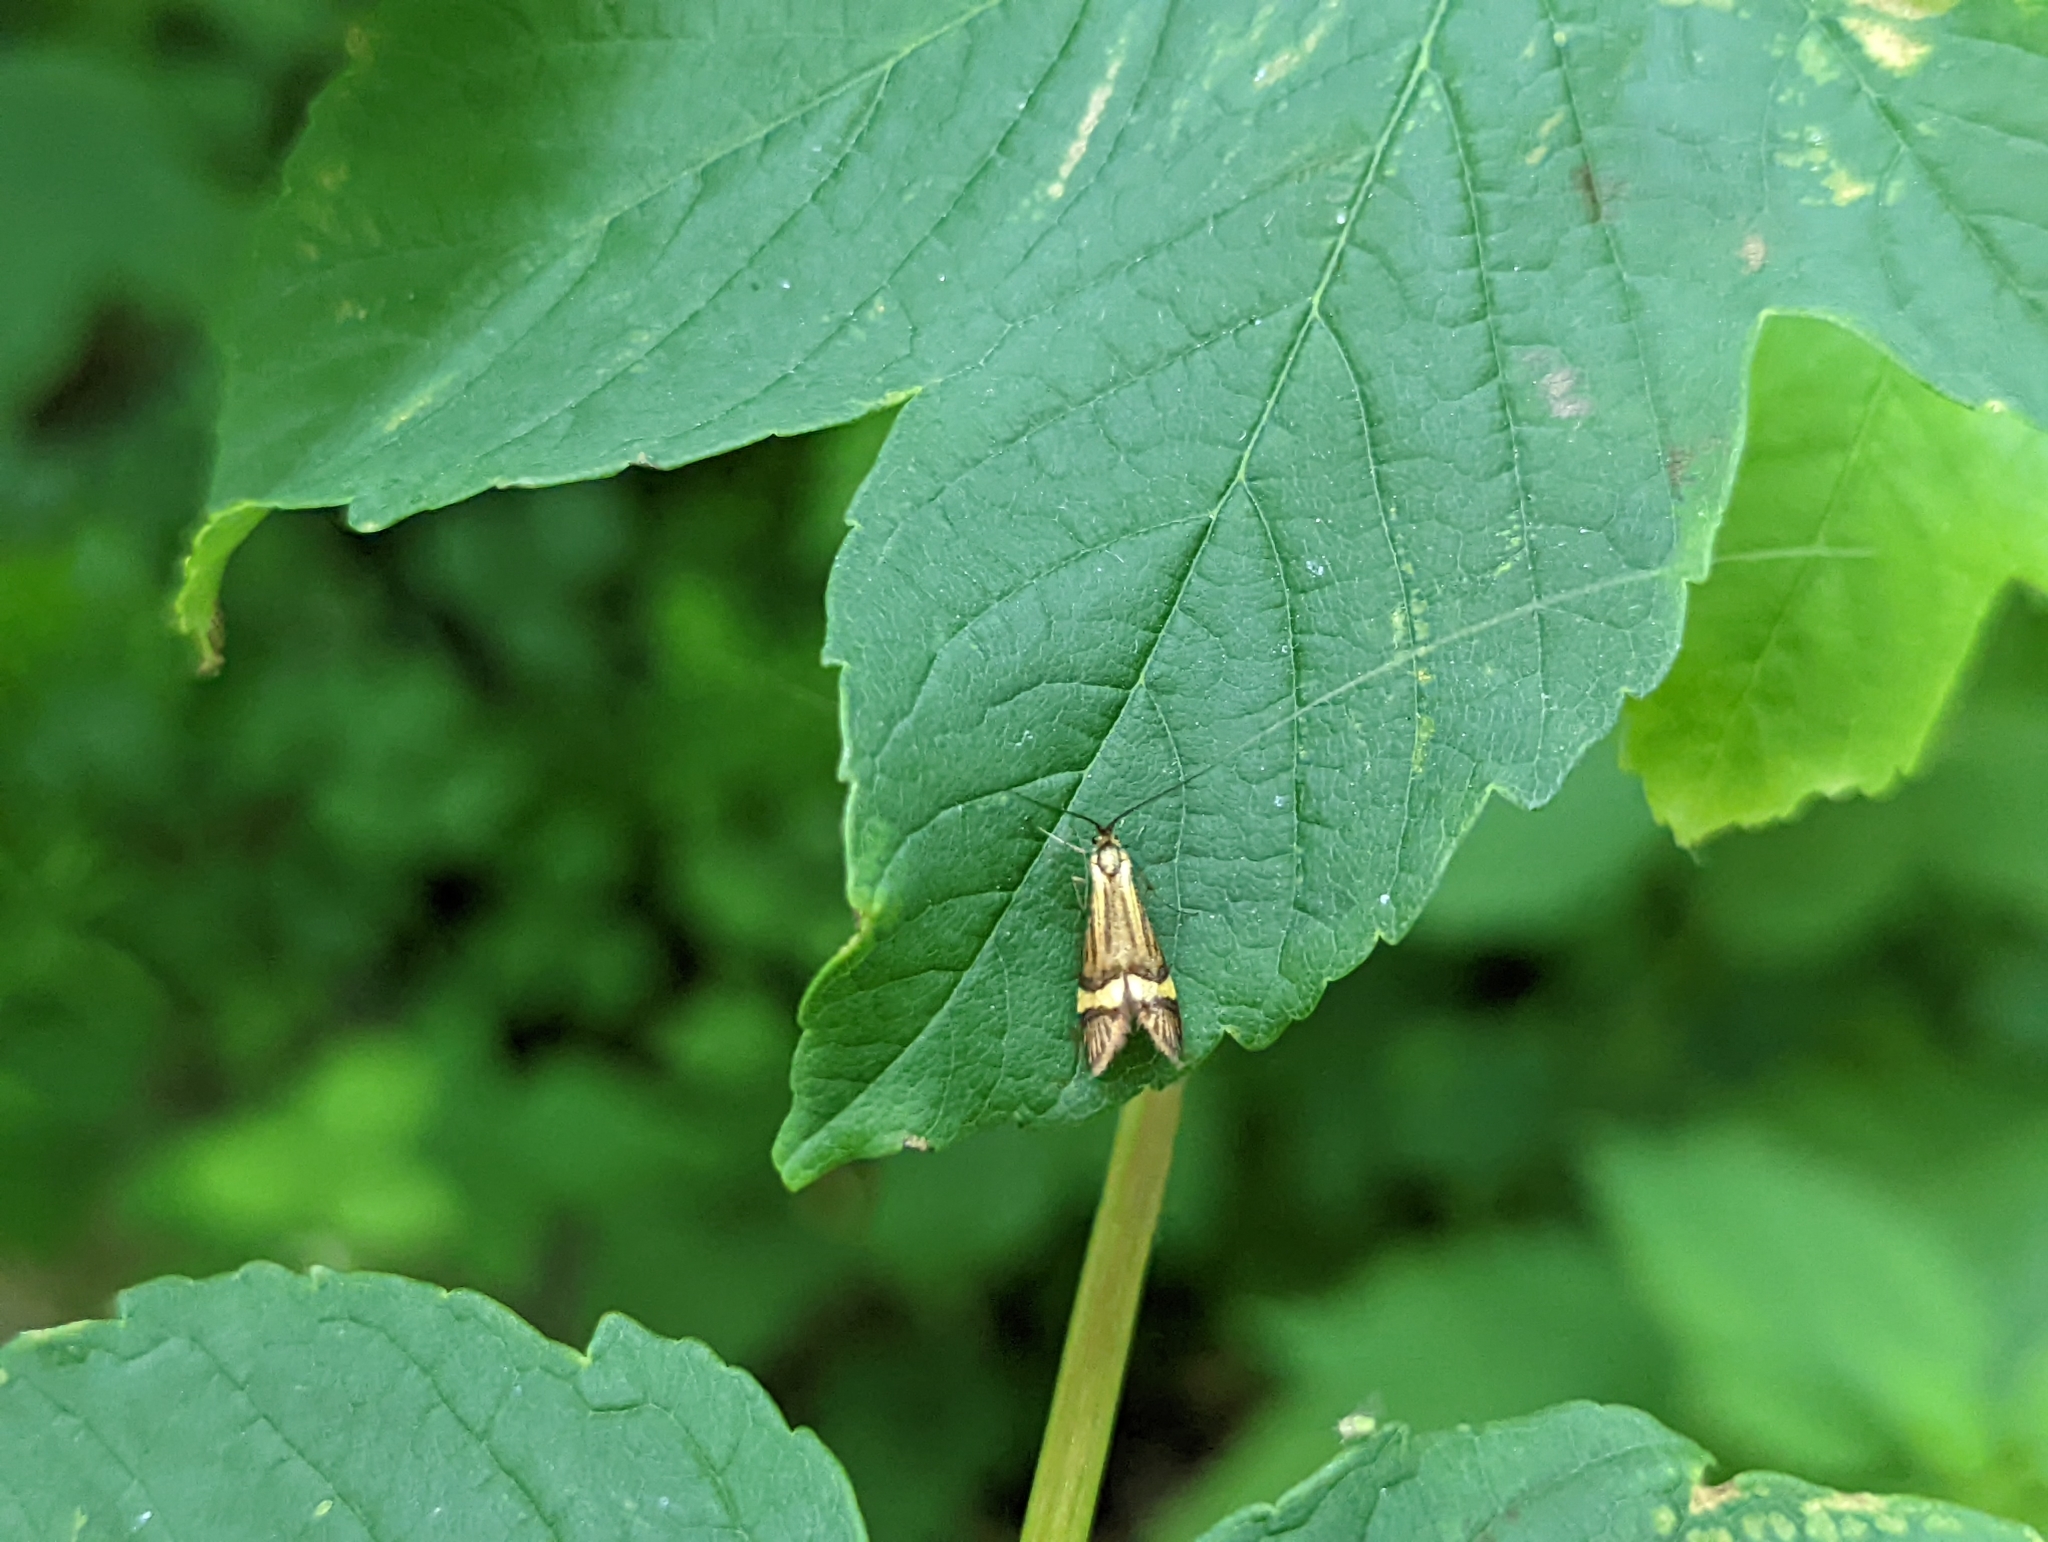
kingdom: Animalia
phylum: Arthropoda
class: Insecta
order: Lepidoptera
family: Adelidae
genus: Nemophora
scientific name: Nemophora degeerella
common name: Yellow-barred long-horn
